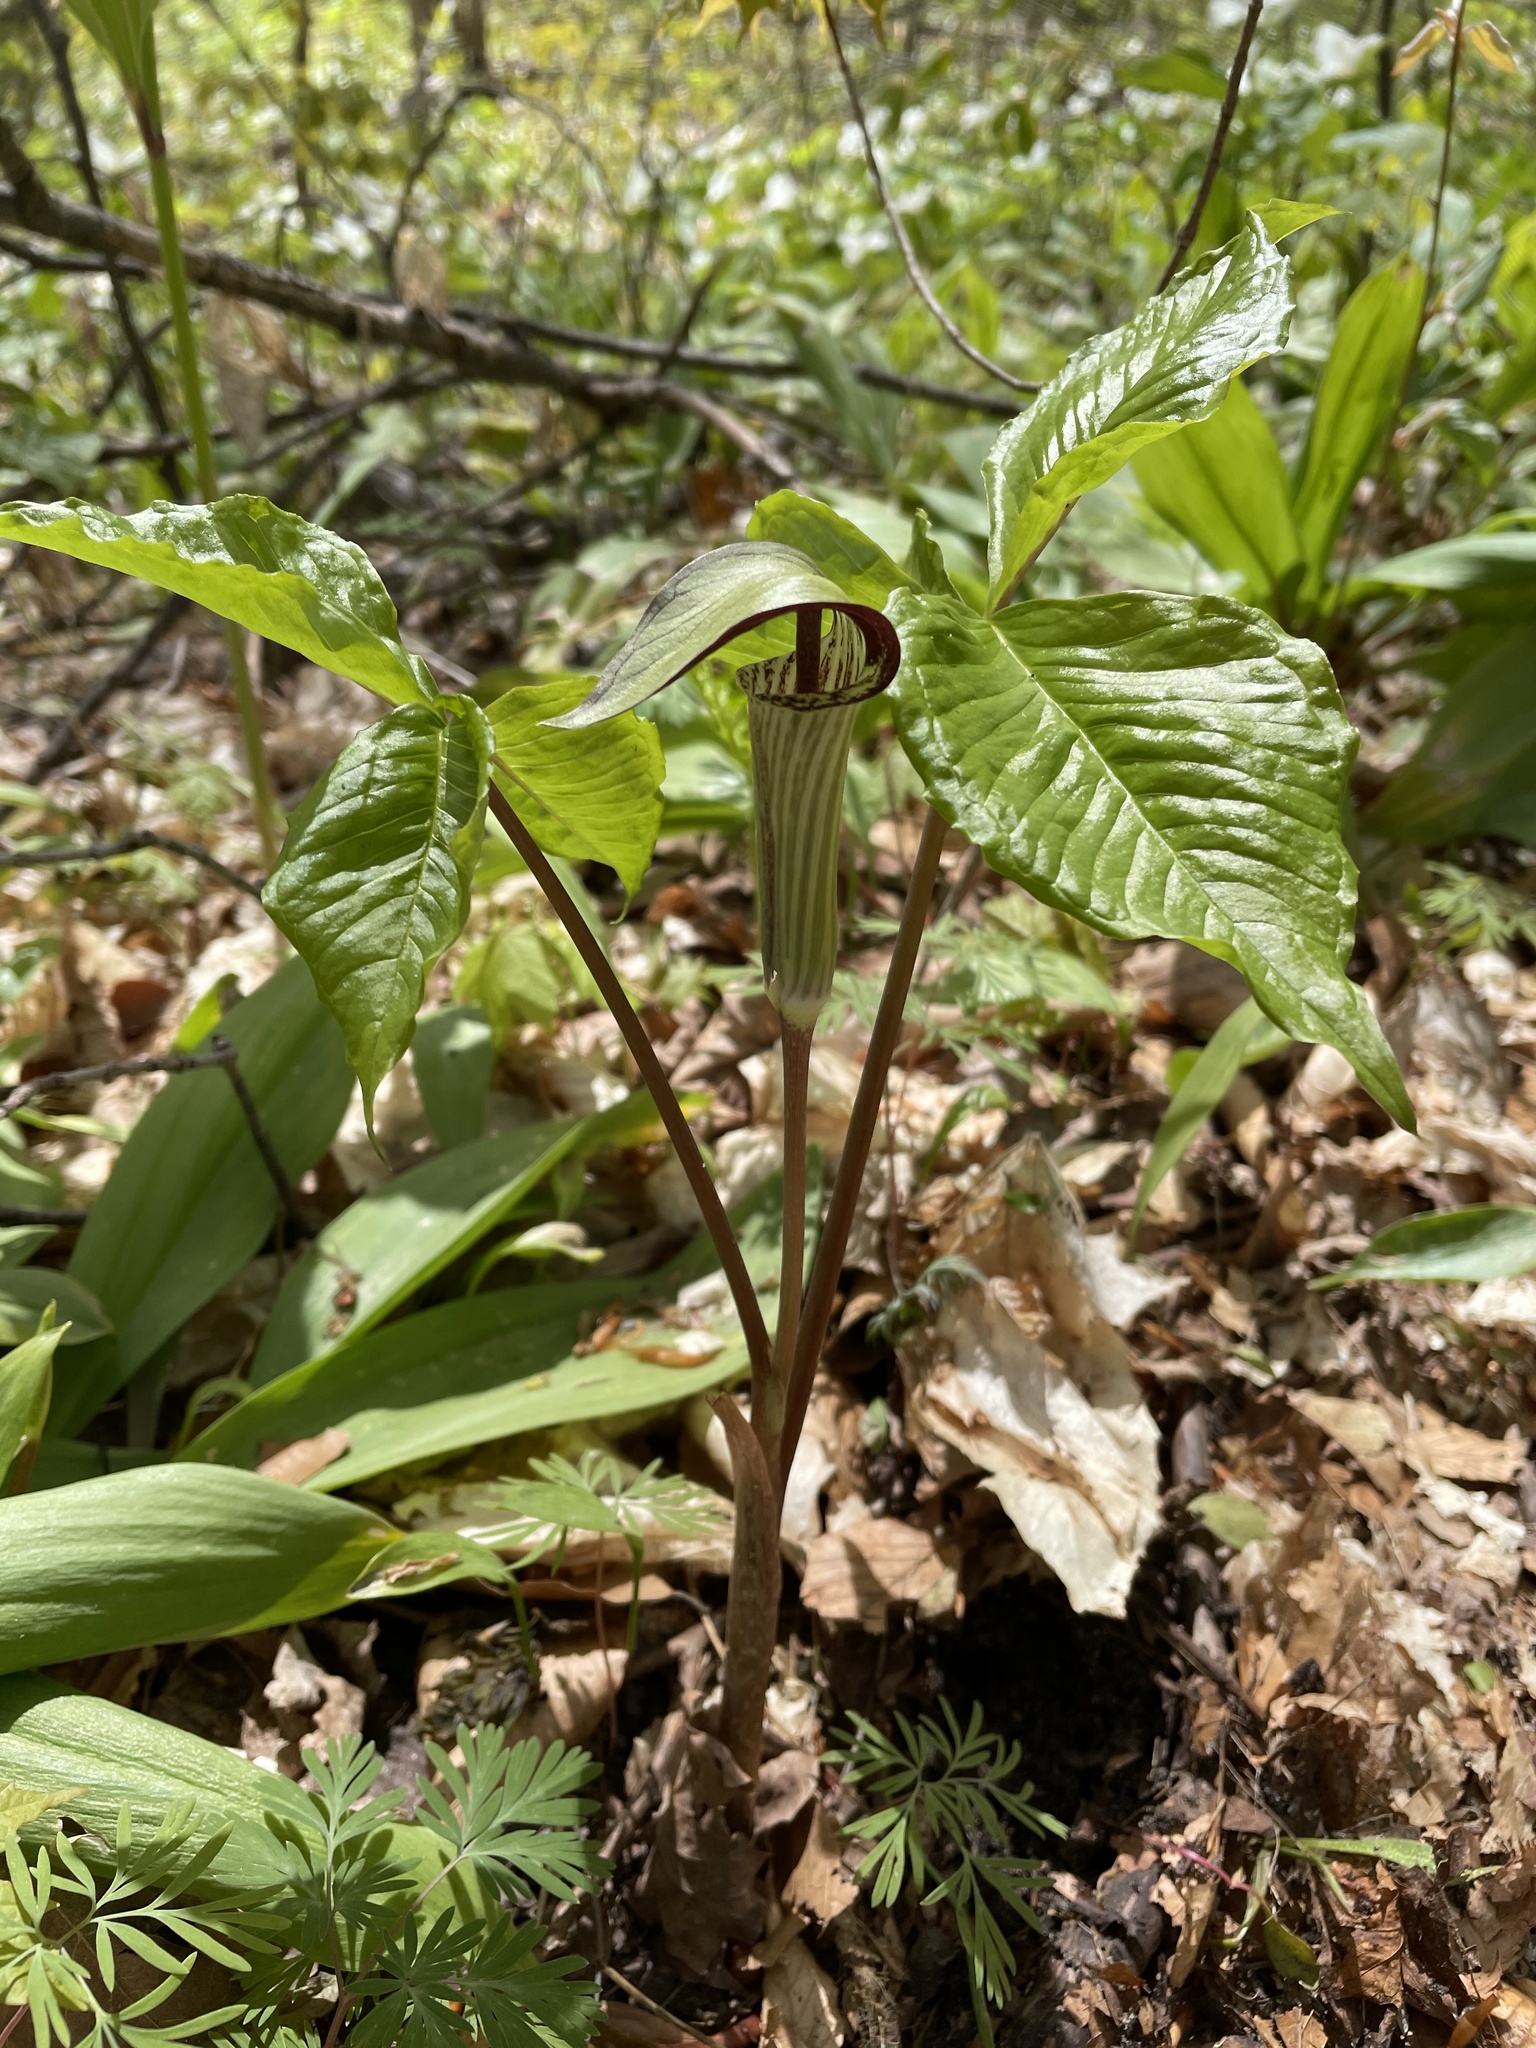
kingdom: Plantae
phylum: Tracheophyta
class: Liliopsida
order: Alismatales
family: Araceae
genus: Arisaema
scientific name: Arisaema triphyllum
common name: Jack-in-the-pulpit
